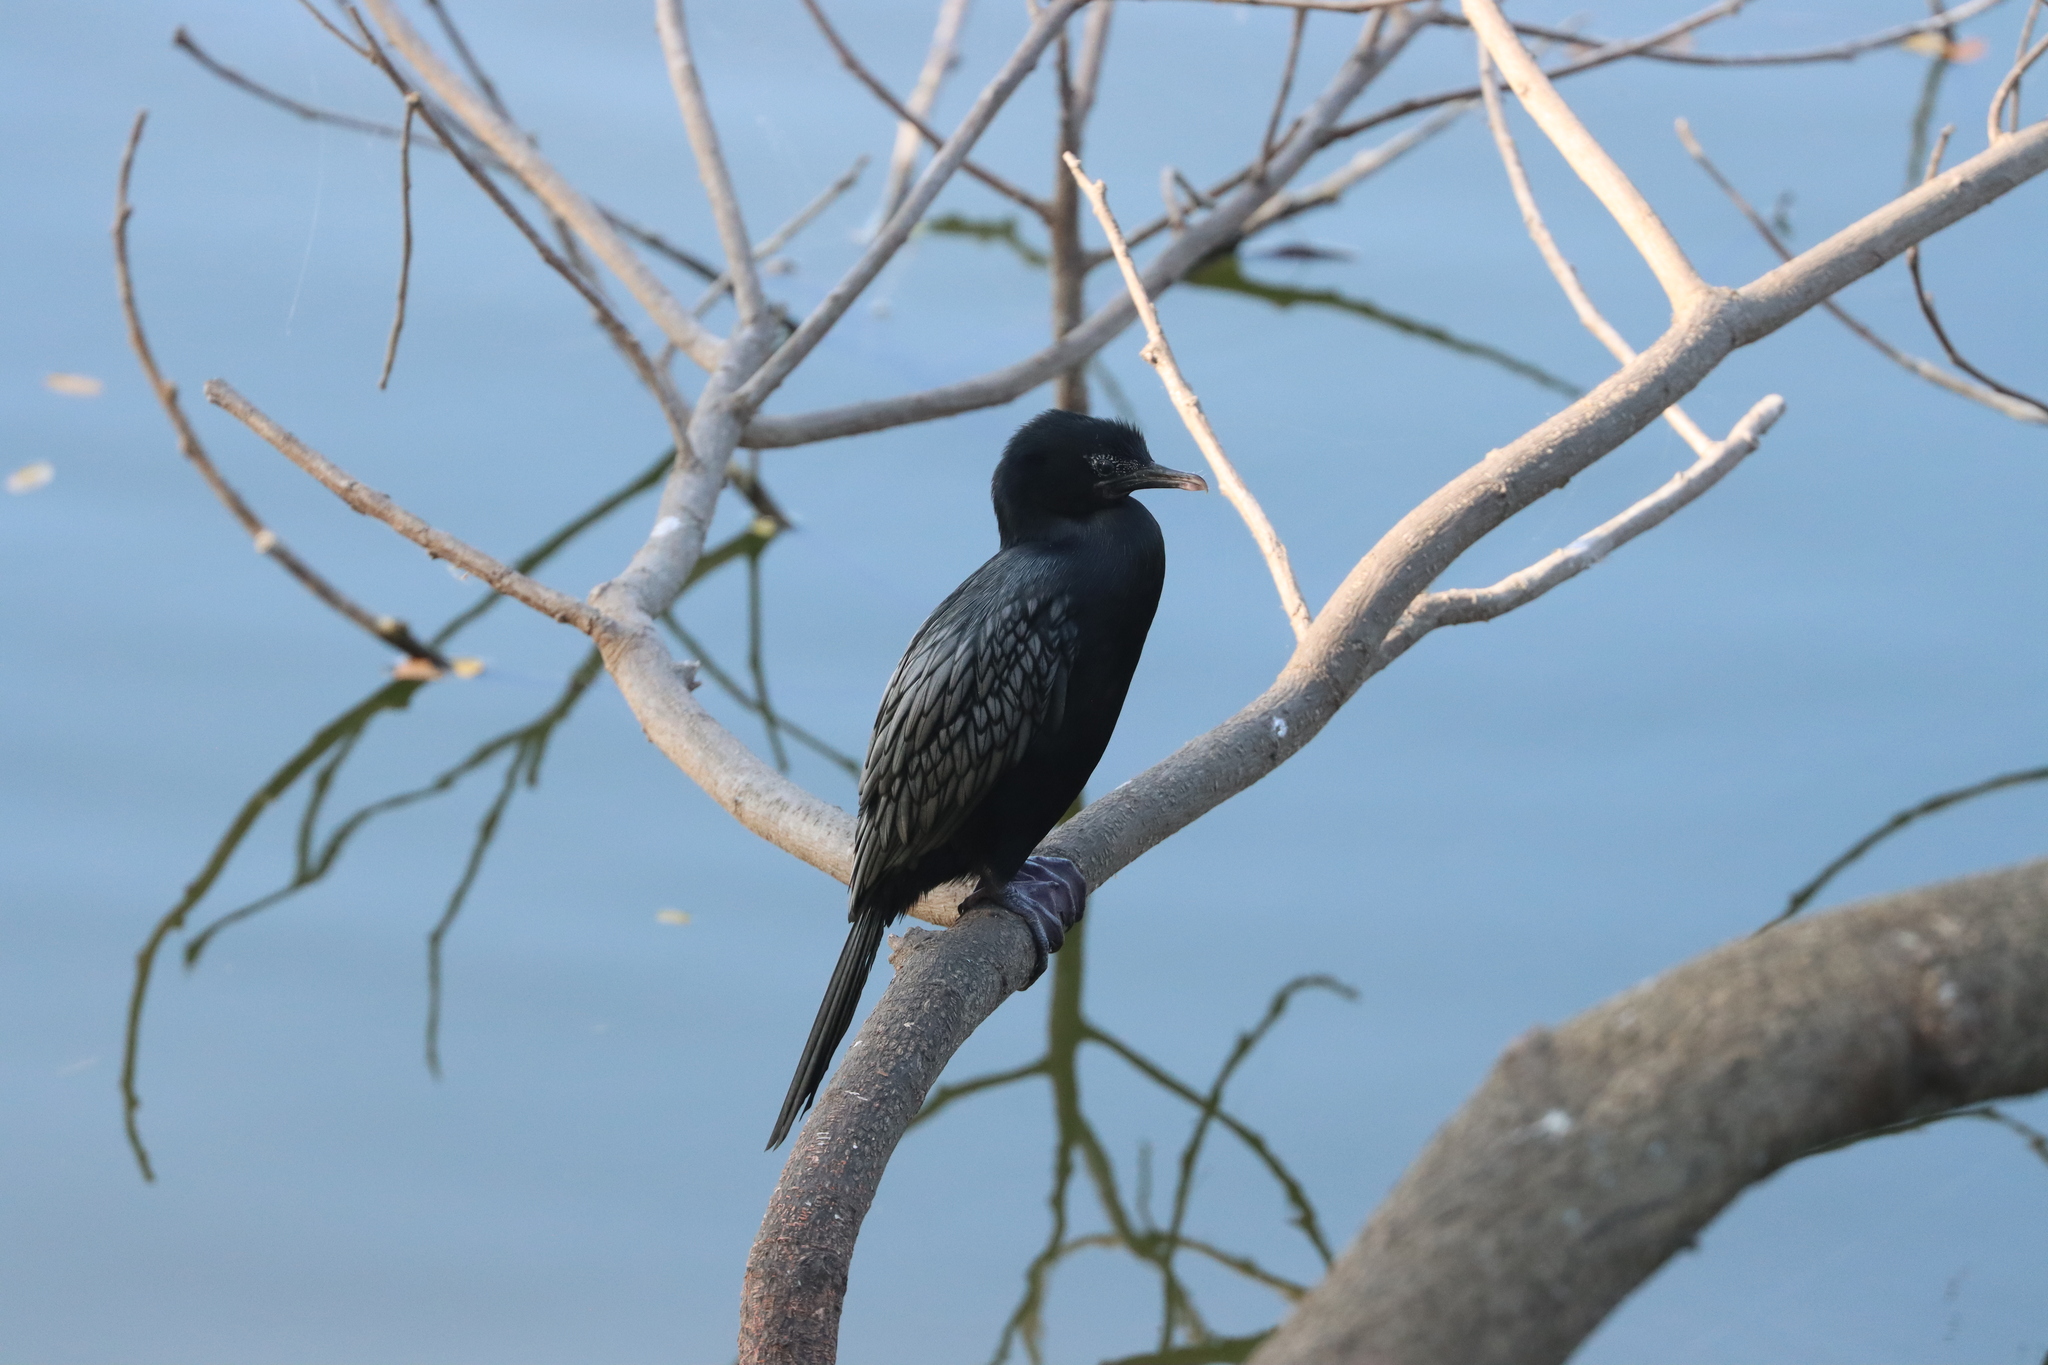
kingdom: Animalia
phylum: Chordata
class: Aves
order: Suliformes
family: Phalacrocoracidae
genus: Microcarbo
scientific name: Microcarbo niger
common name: Little cormorant
